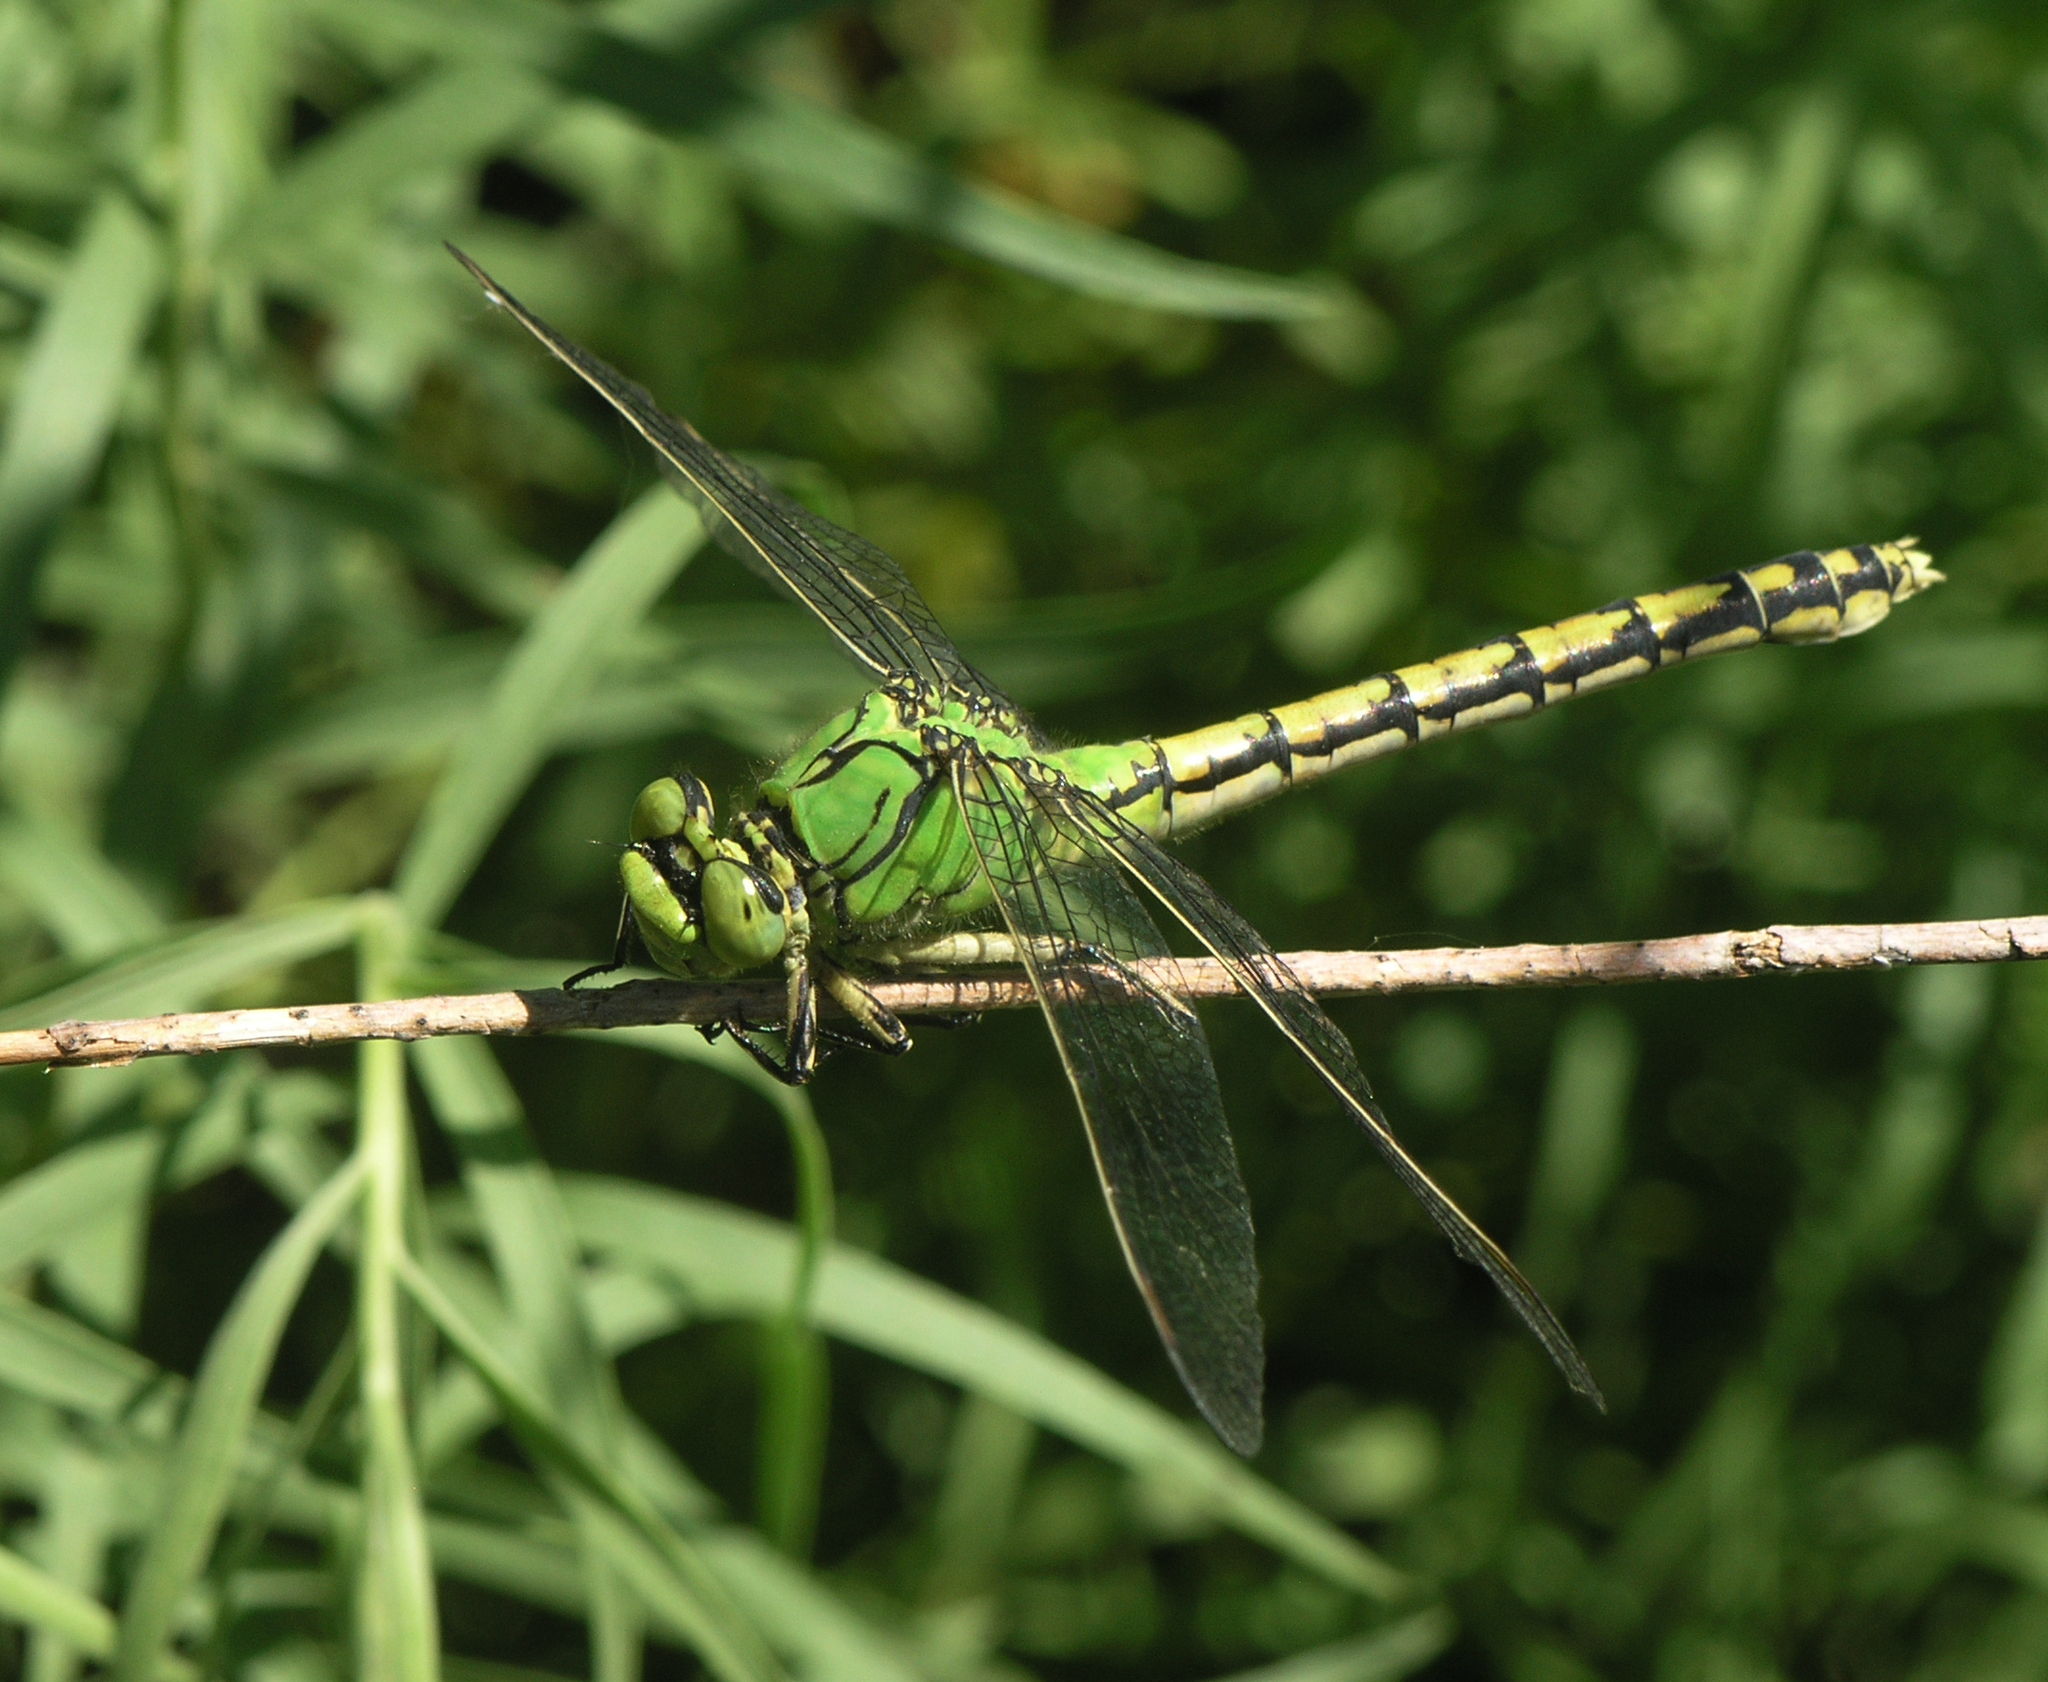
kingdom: Animalia
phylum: Arthropoda
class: Insecta
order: Odonata
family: Gomphidae
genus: Ophiogomphus
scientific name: Ophiogomphus cecilia
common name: Green snaketail
